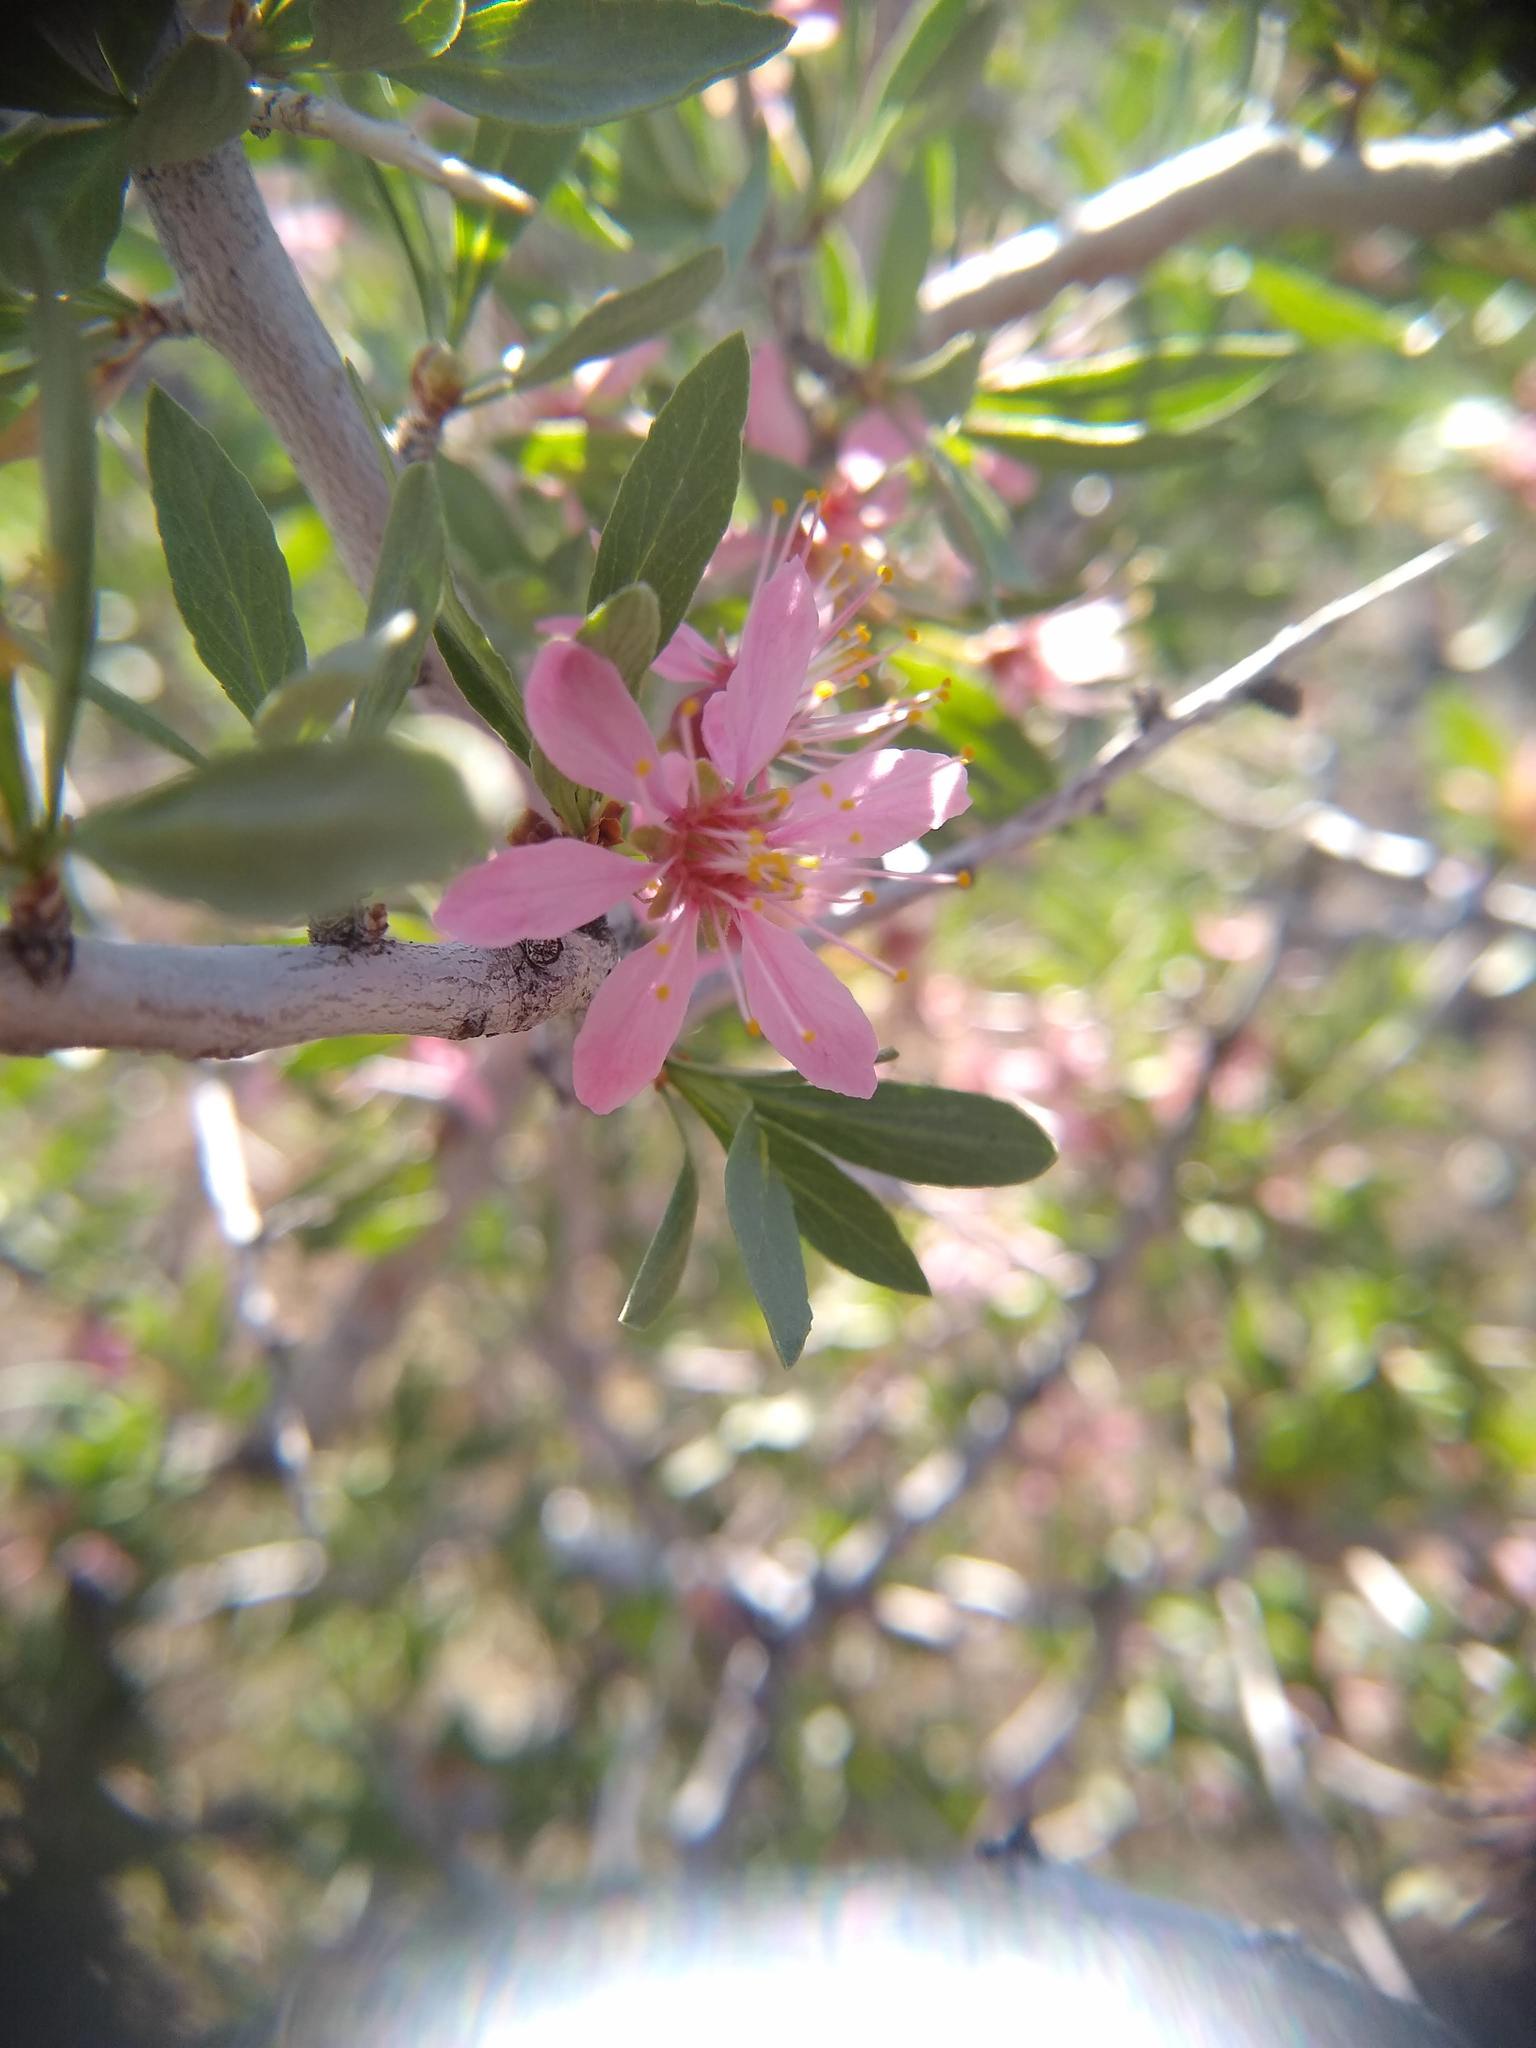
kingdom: Plantae
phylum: Tracheophyta
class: Magnoliopsida
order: Rosales
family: Rosaceae
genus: Prunus
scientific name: Prunus andersonii
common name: Desert peach
